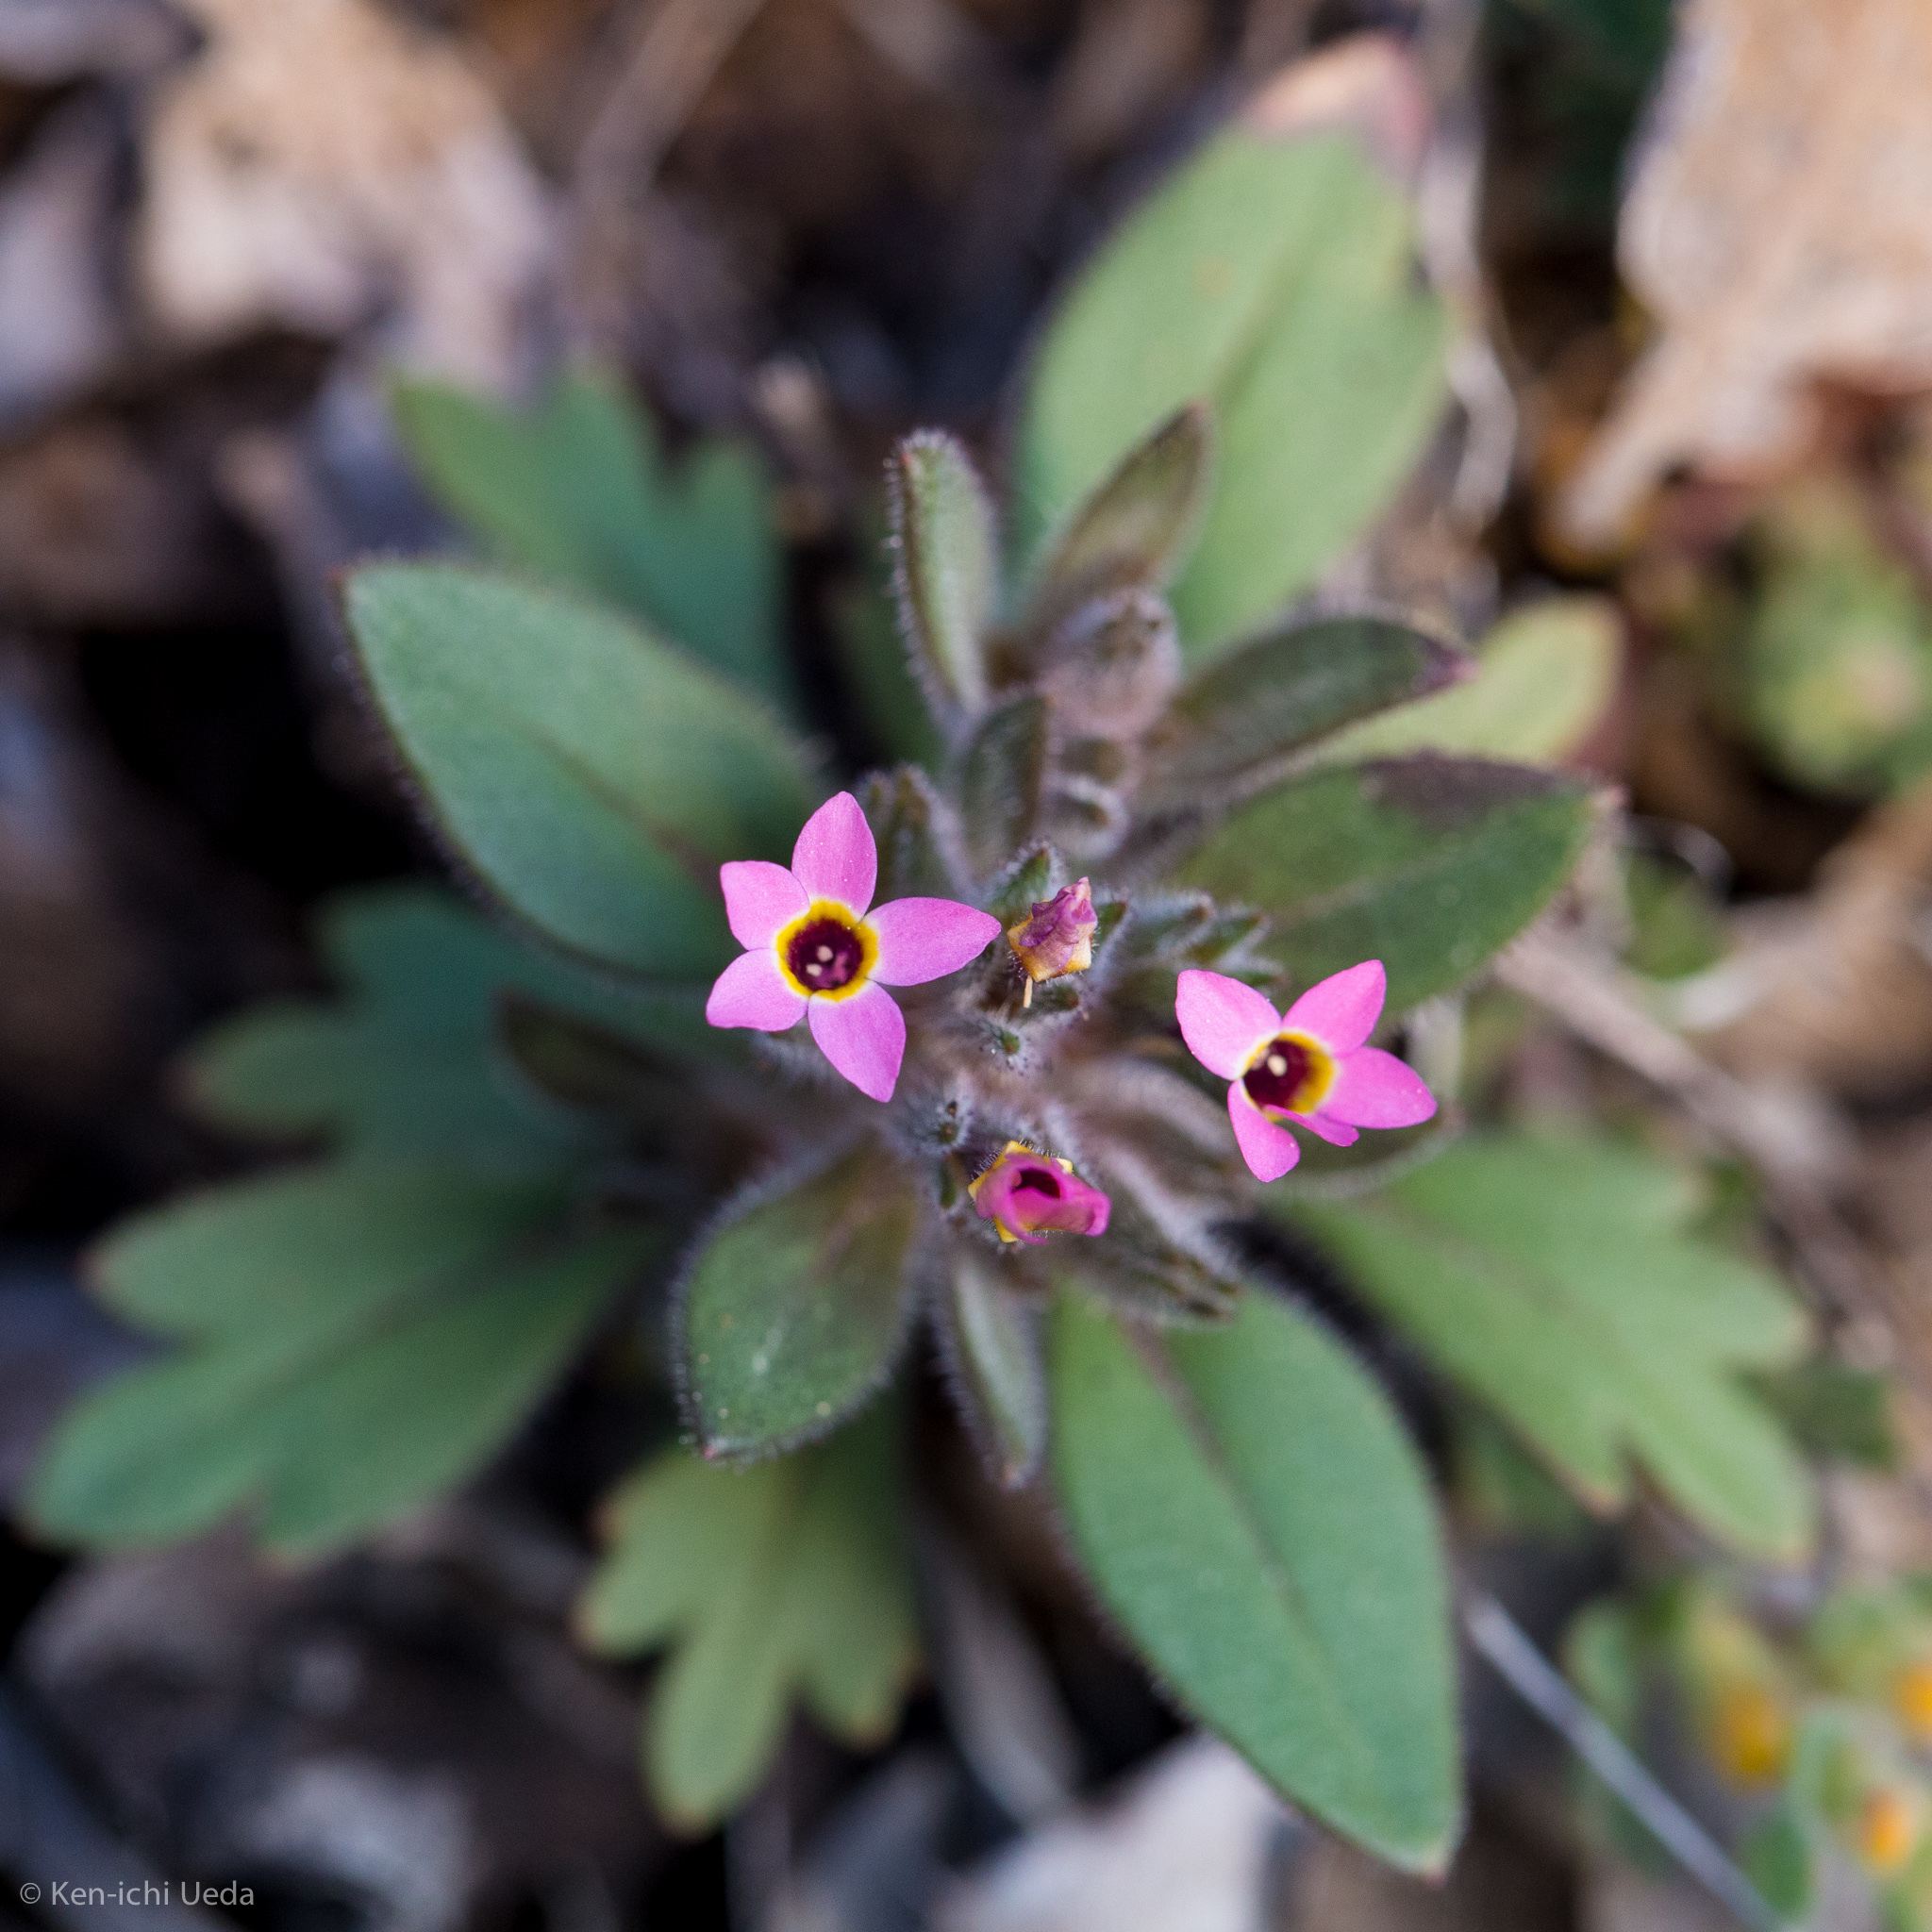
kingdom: Plantae
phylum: Tracheophyta
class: Magnoliopsida
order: Ericales
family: Polemoniaceae
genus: Collomia
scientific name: Collomia diversifolia
